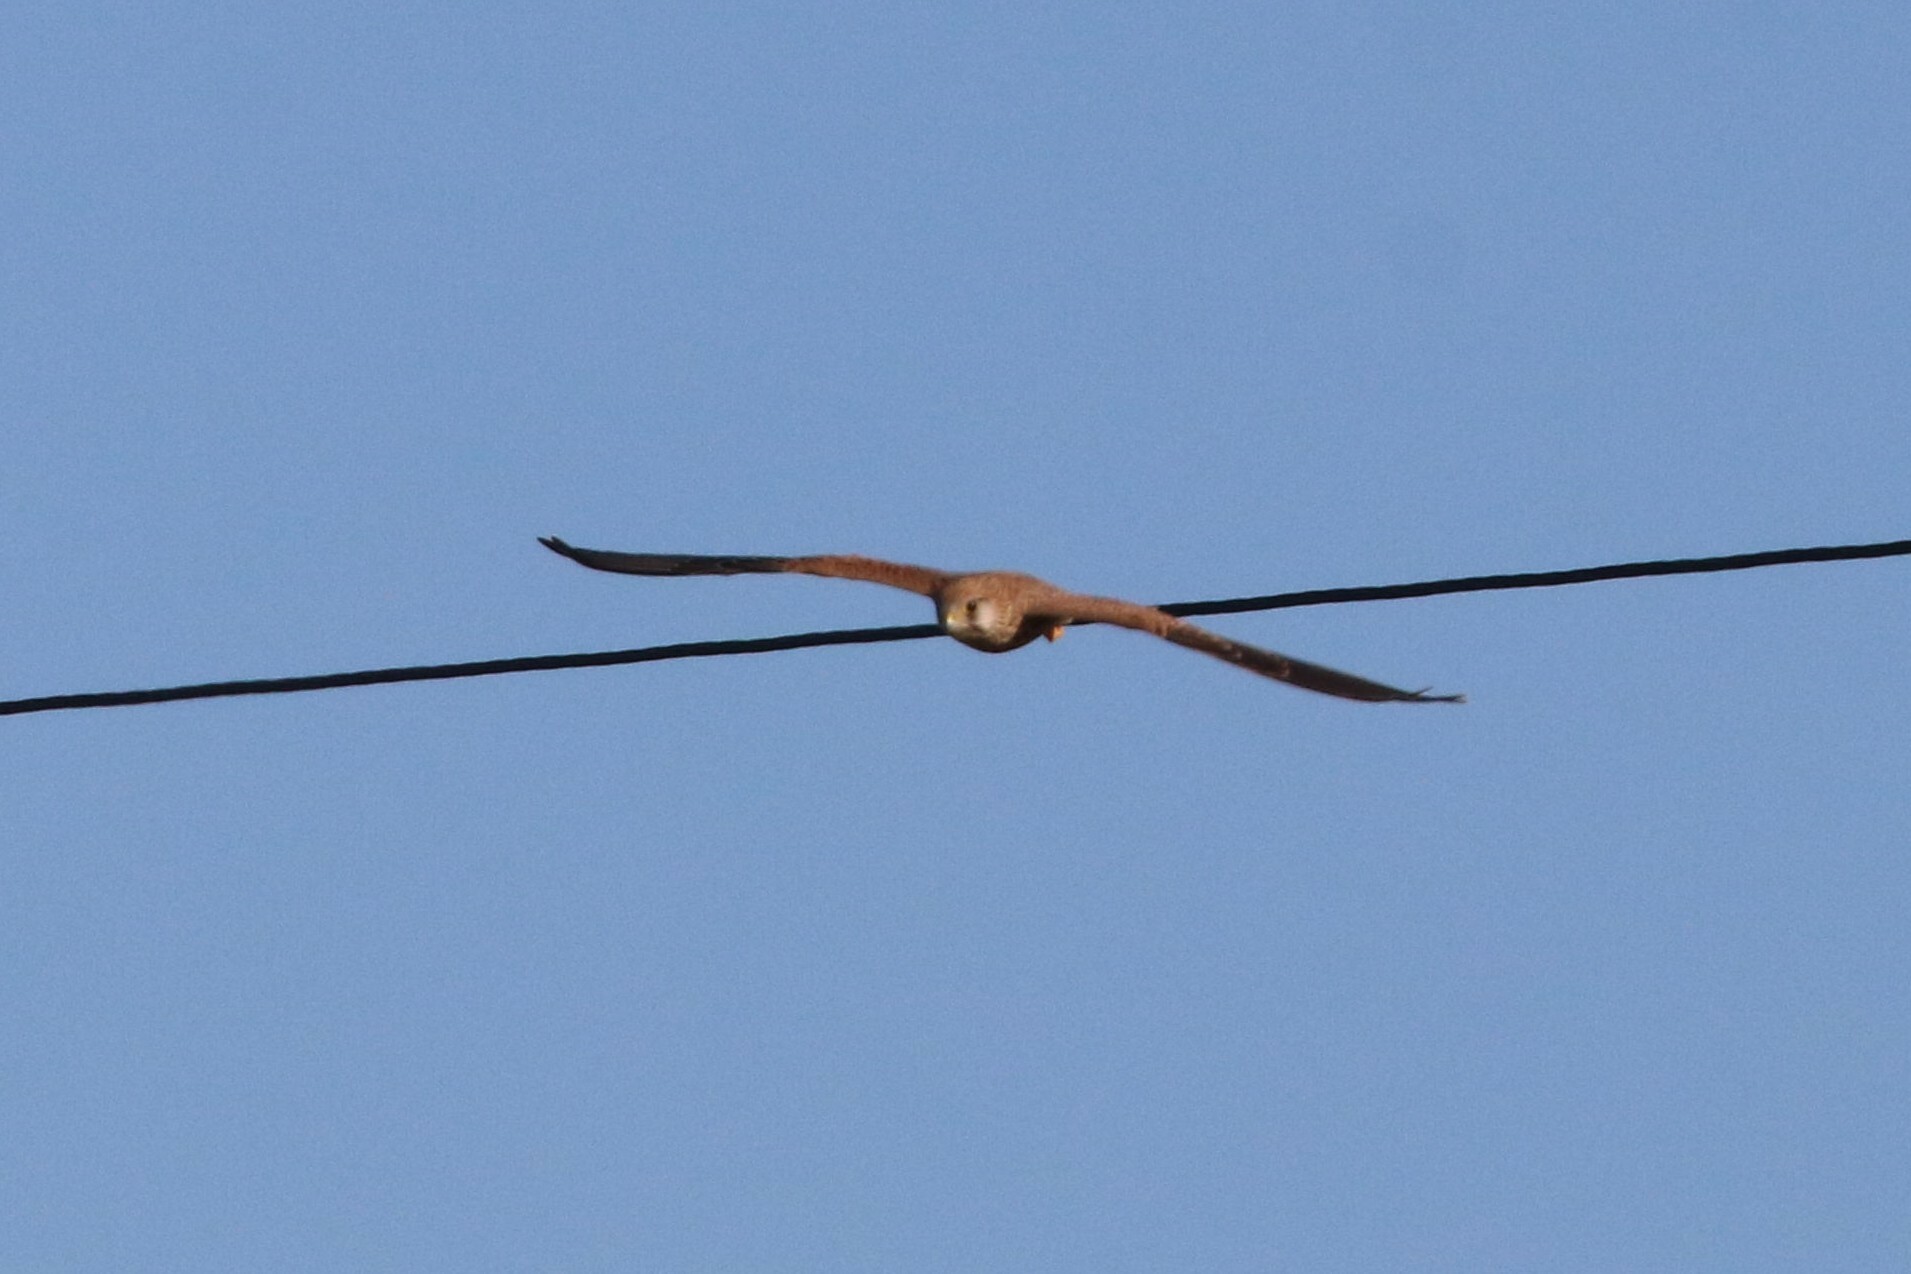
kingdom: Animalia
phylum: Chordata
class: Aves
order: Falconiformes
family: Falconidae
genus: Falco
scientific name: Falco tinnunculus
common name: Common kestrel
